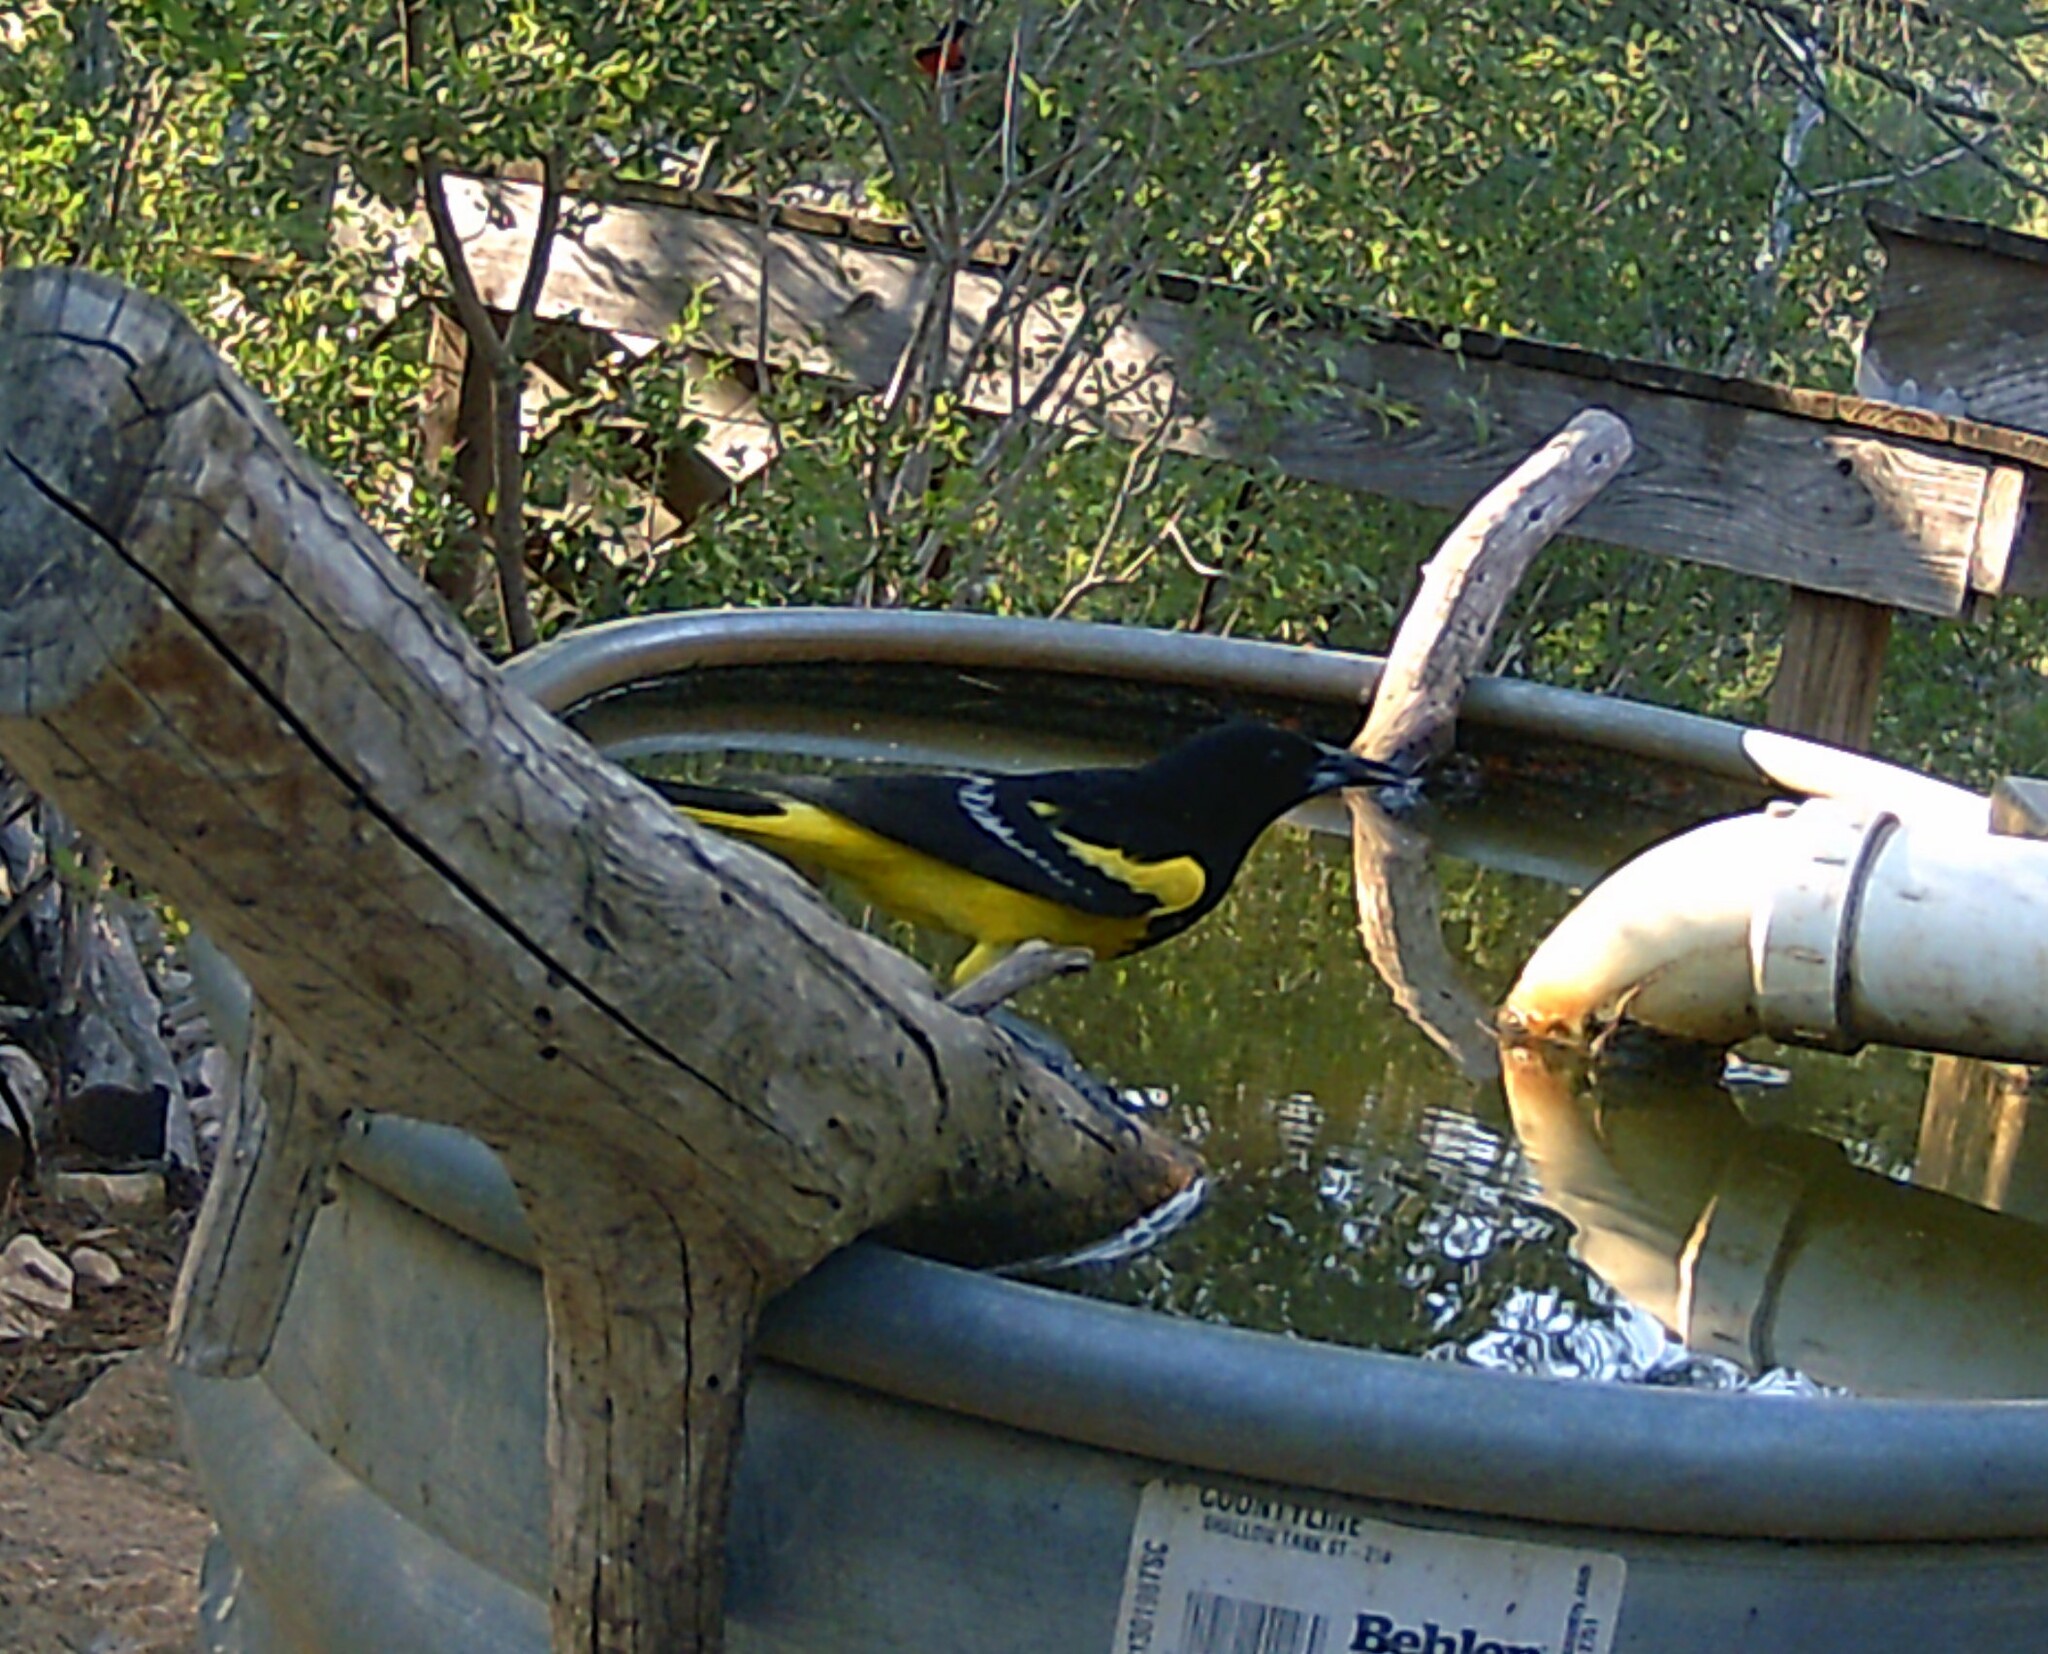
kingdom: Animalia
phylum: Chordata
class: Aves
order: Passeriformes
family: Icteridae
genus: Icterus
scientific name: Icterus parisorum
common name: Scott's oriole
